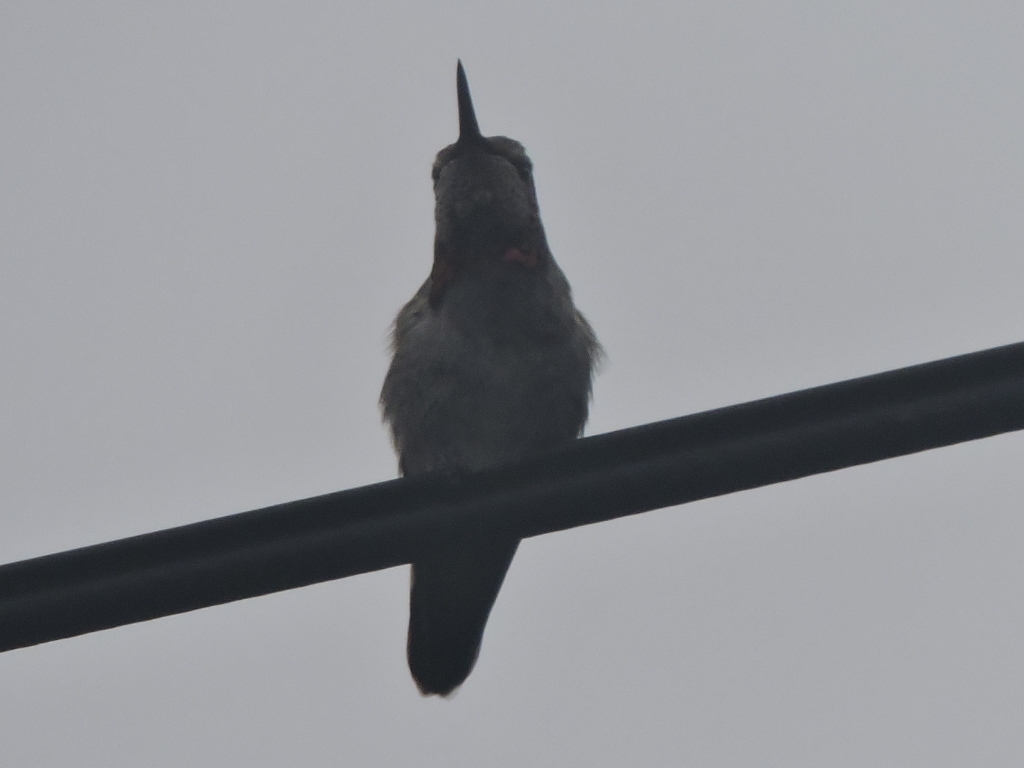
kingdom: Animalia
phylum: Chordata
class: Aves
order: Apodiformes
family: Trochilidae
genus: Calypte
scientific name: Calypte anna
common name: Anna's hummingbird
